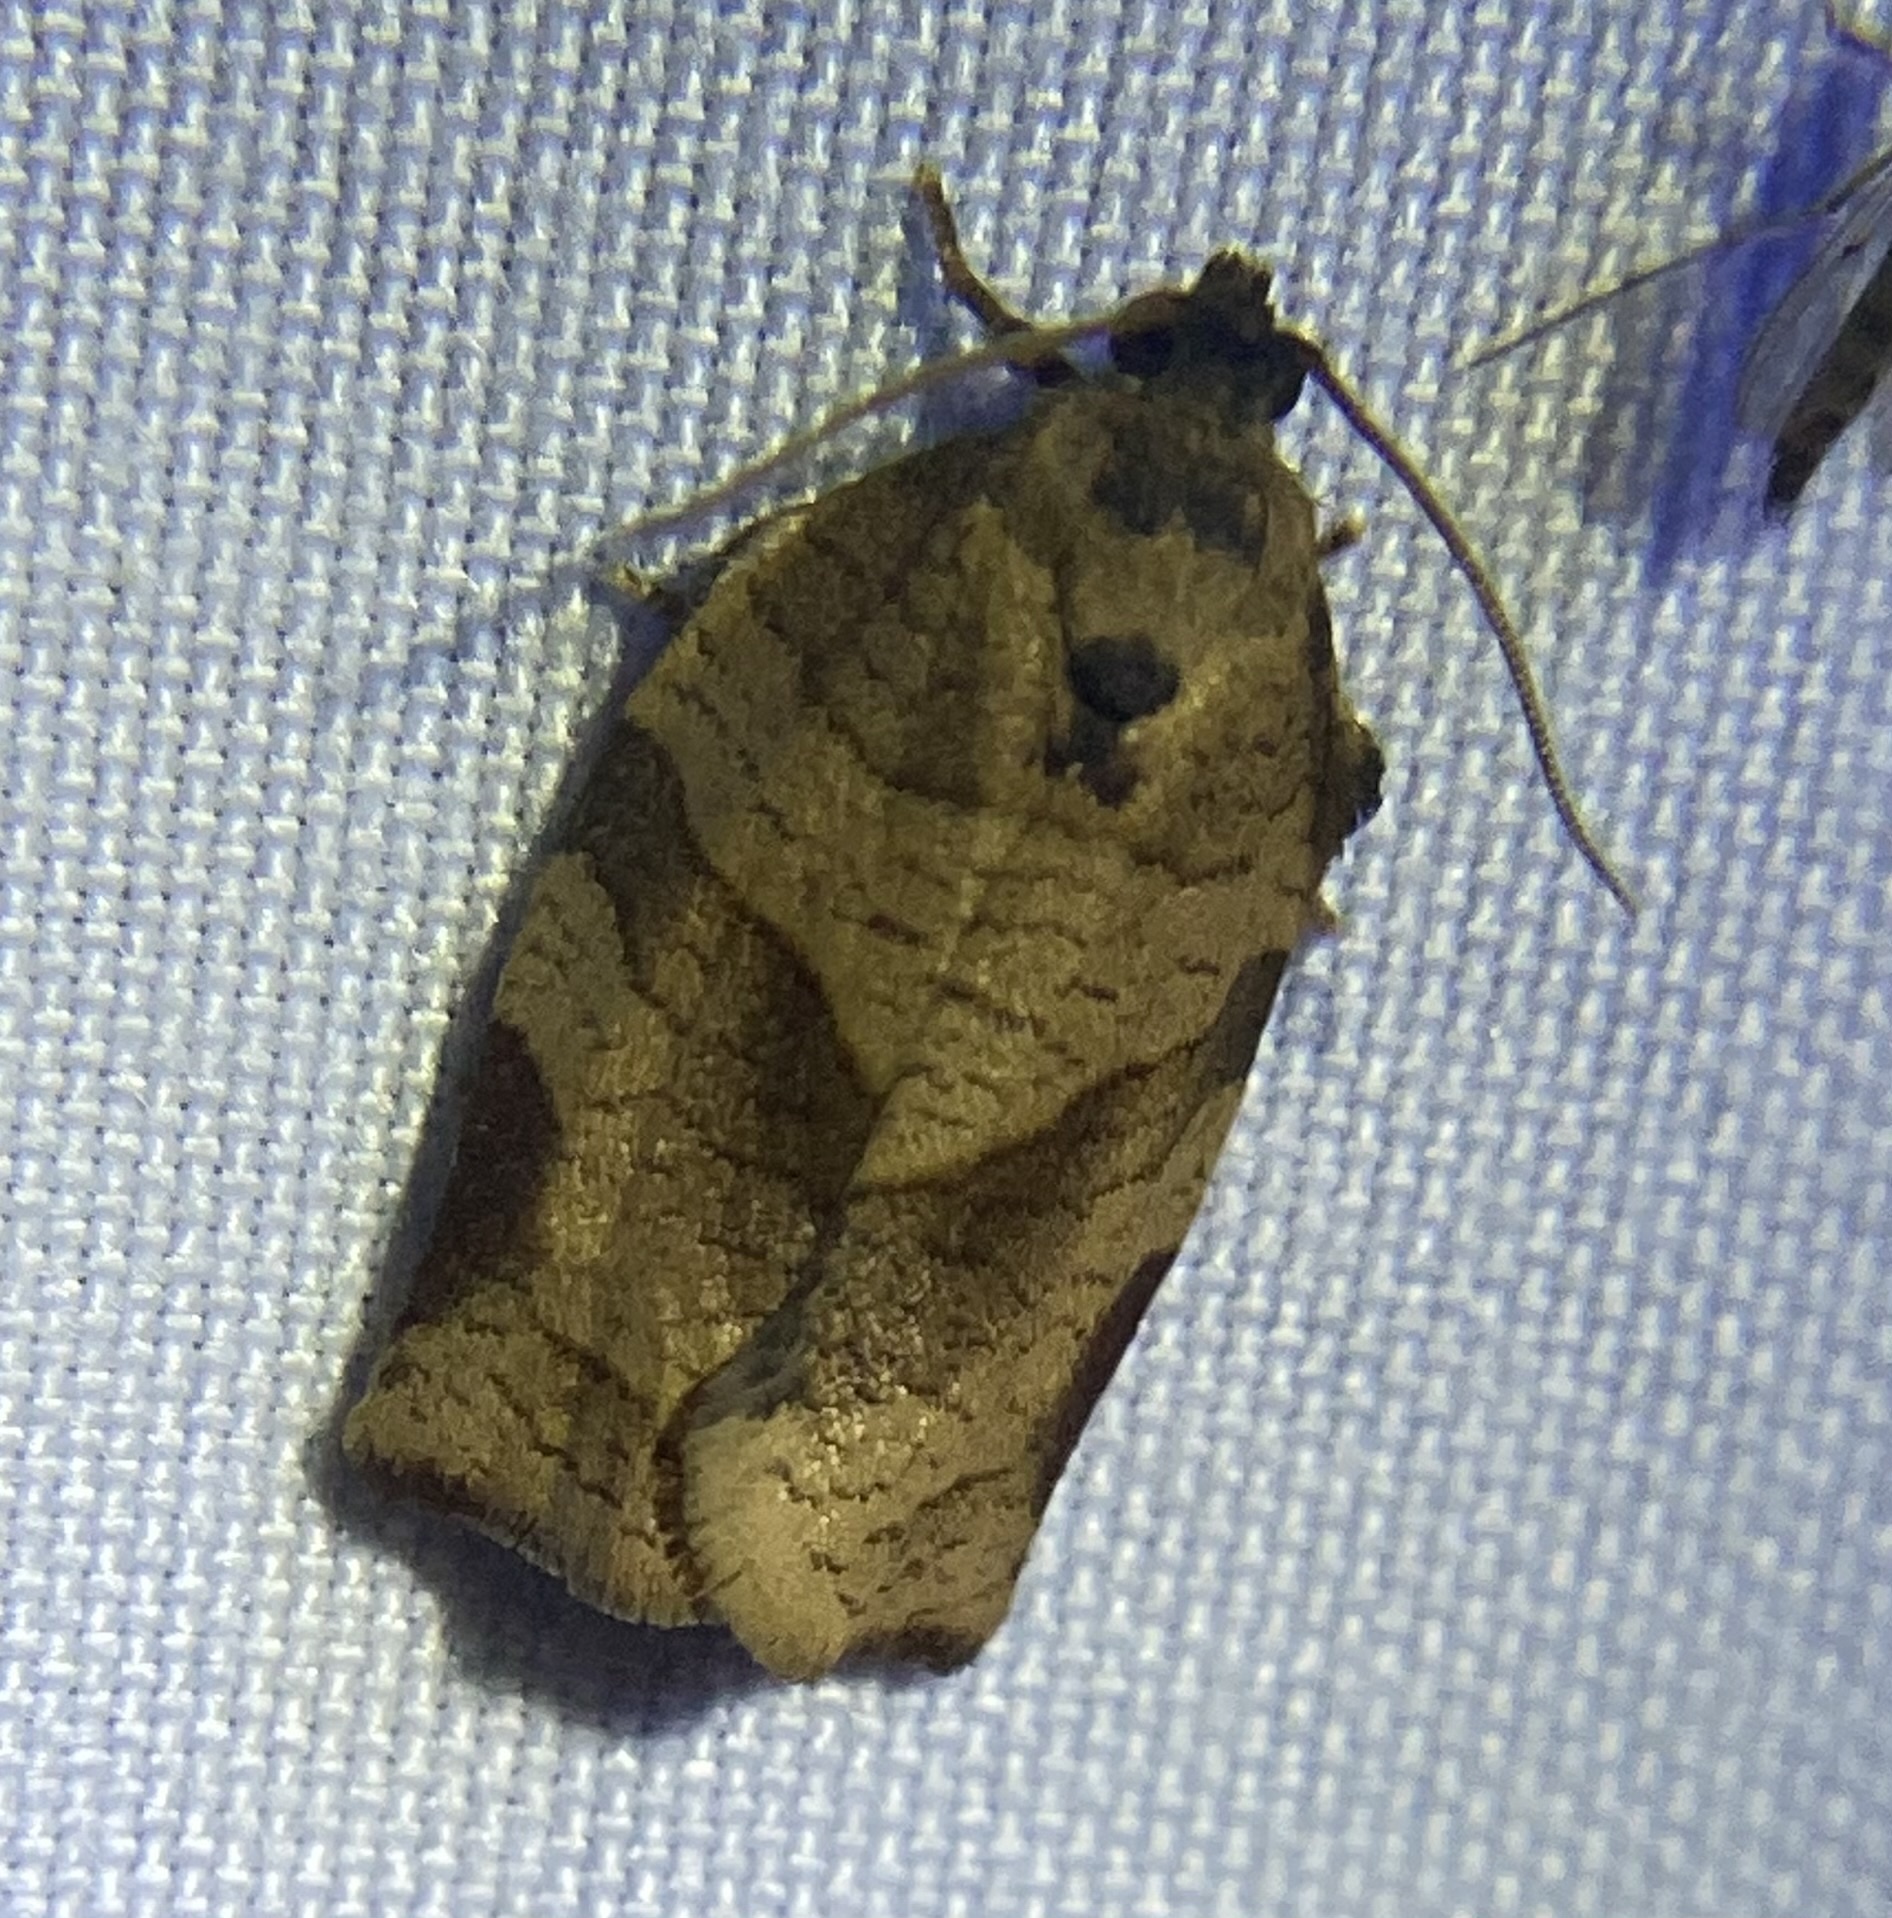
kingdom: Animalia
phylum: Arthropoda
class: Insecta
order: Lepidoptera
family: Tortricidae
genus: Choristoneura
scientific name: Choristoneura rosaceana
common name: Oblique-banded leafroller moth
